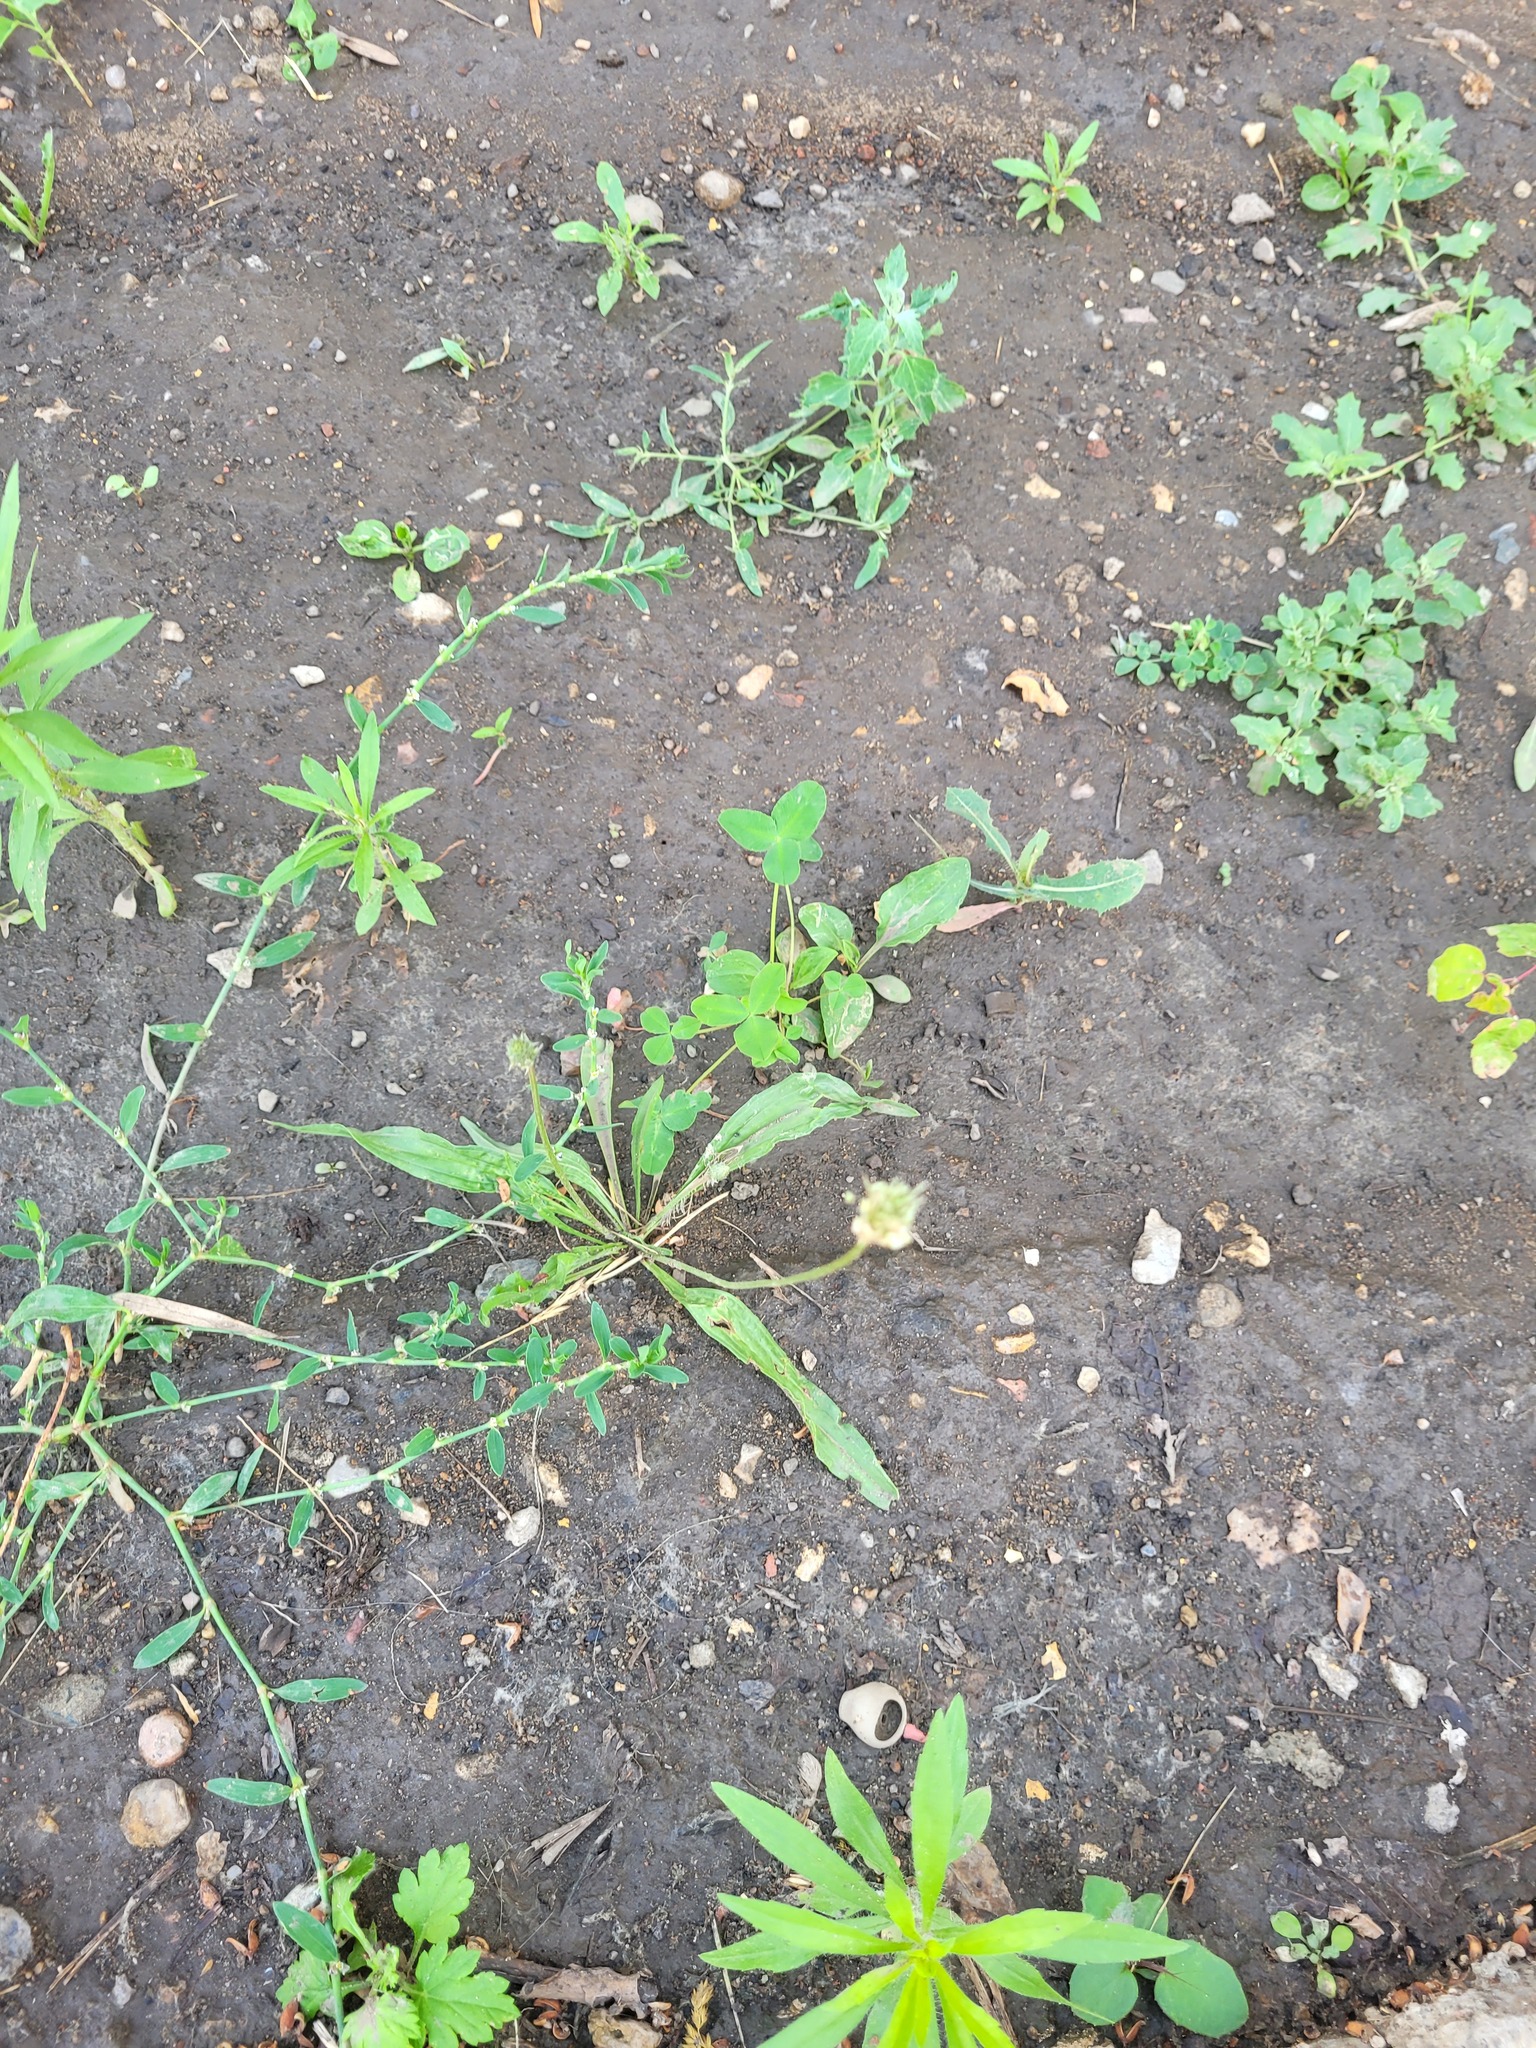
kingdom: Plantae
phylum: Tracheophyta
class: Magnoliopsida
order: Lamiales
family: Plantaginaceae
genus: Plantago
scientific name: Plantago lanceolata
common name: Ribwort plantain
